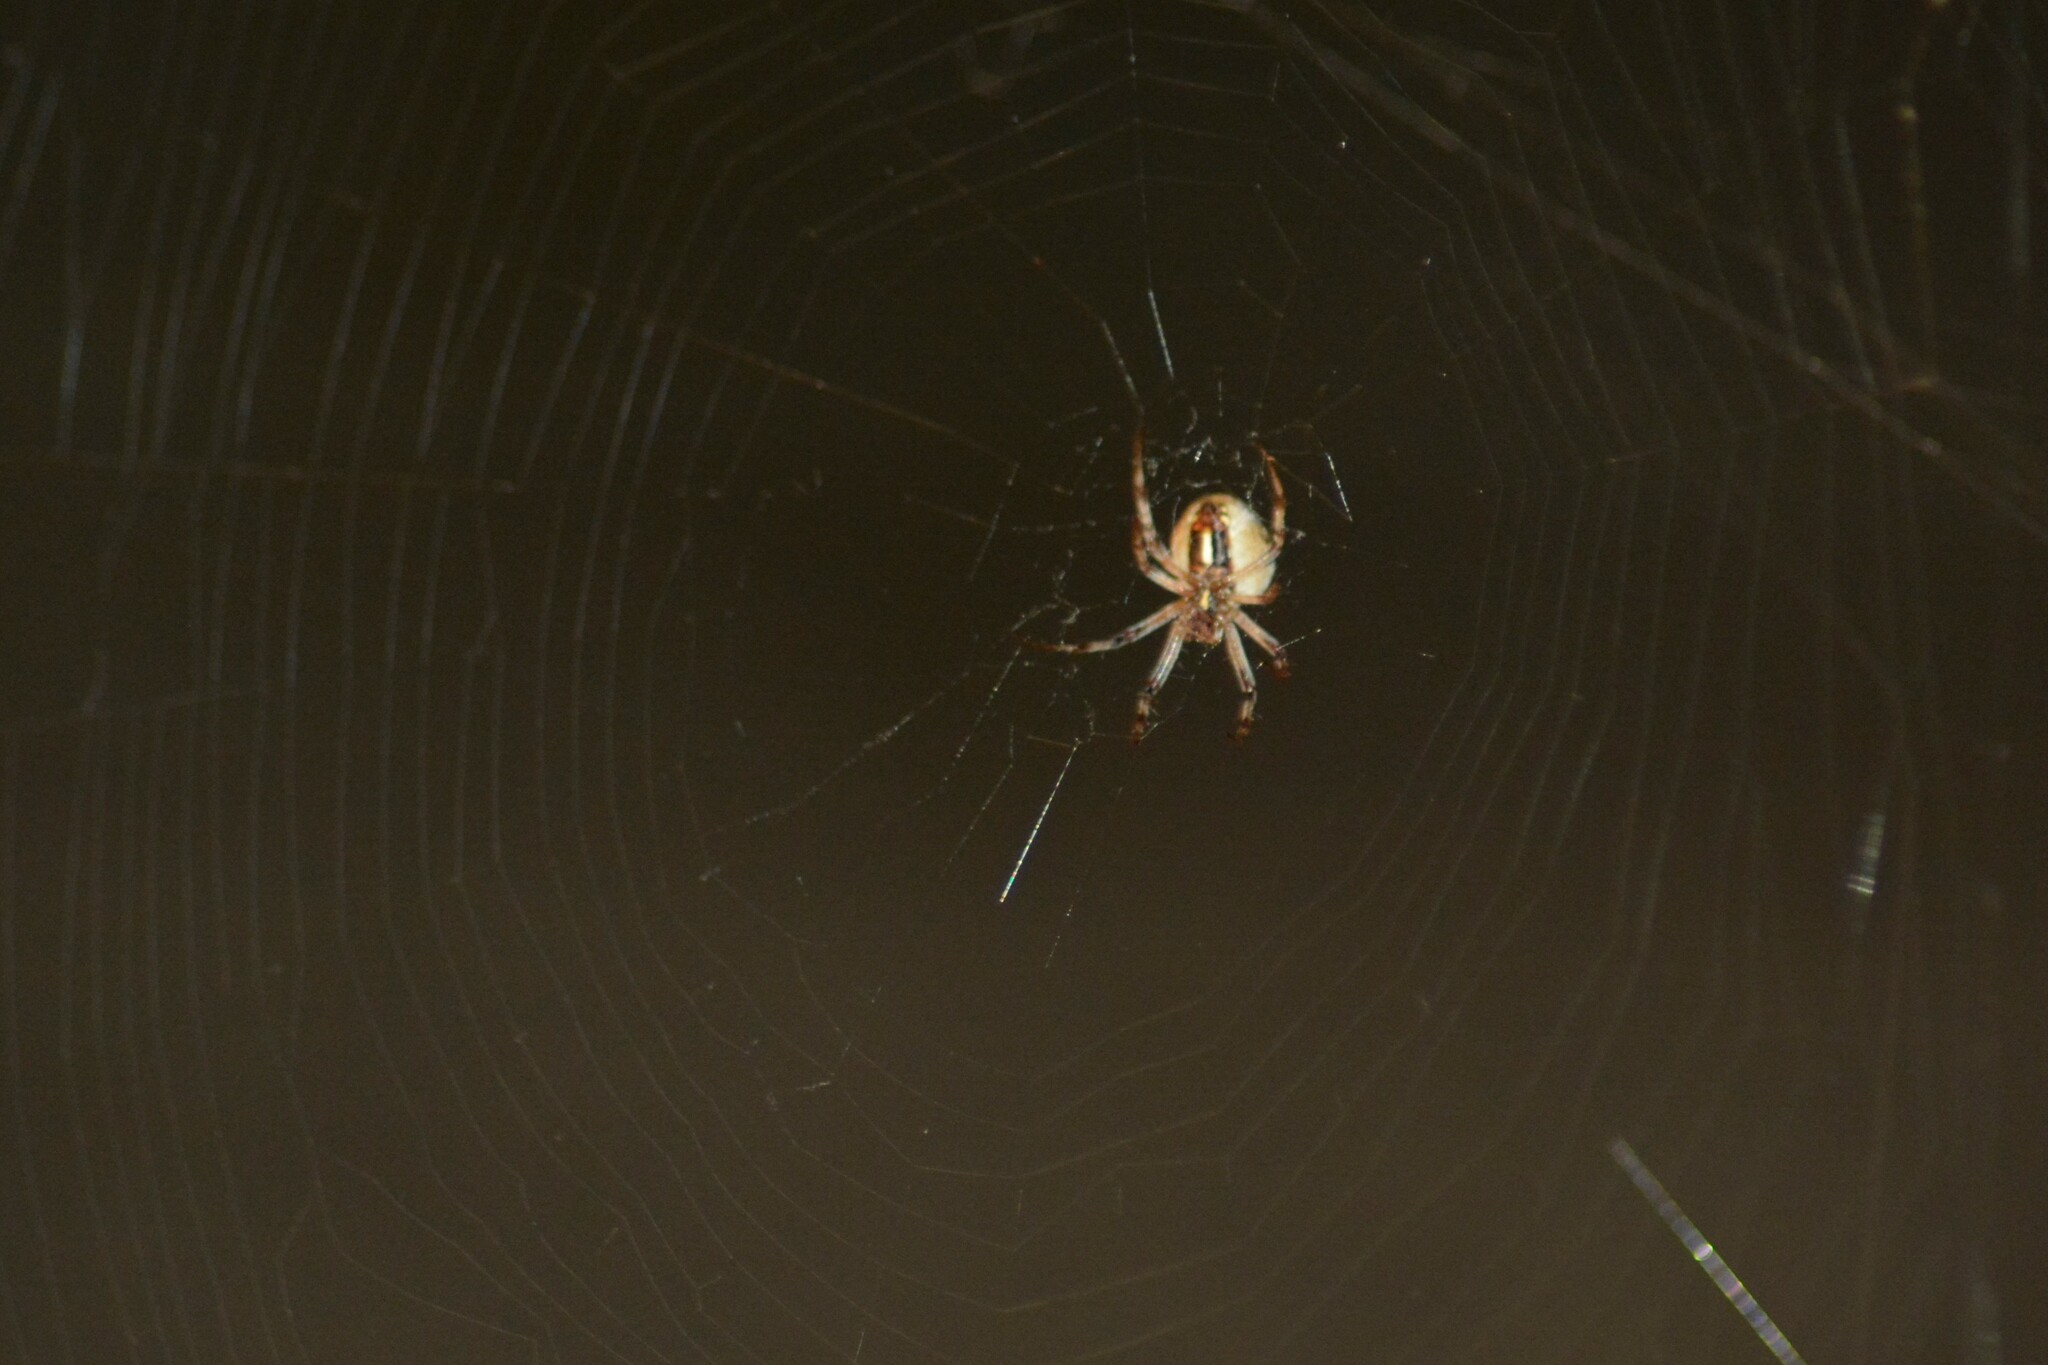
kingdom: Animalia
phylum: Arthropoda
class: Arachnida
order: Araneae
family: Araneidae
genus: Metepeira
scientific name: Metepeira
